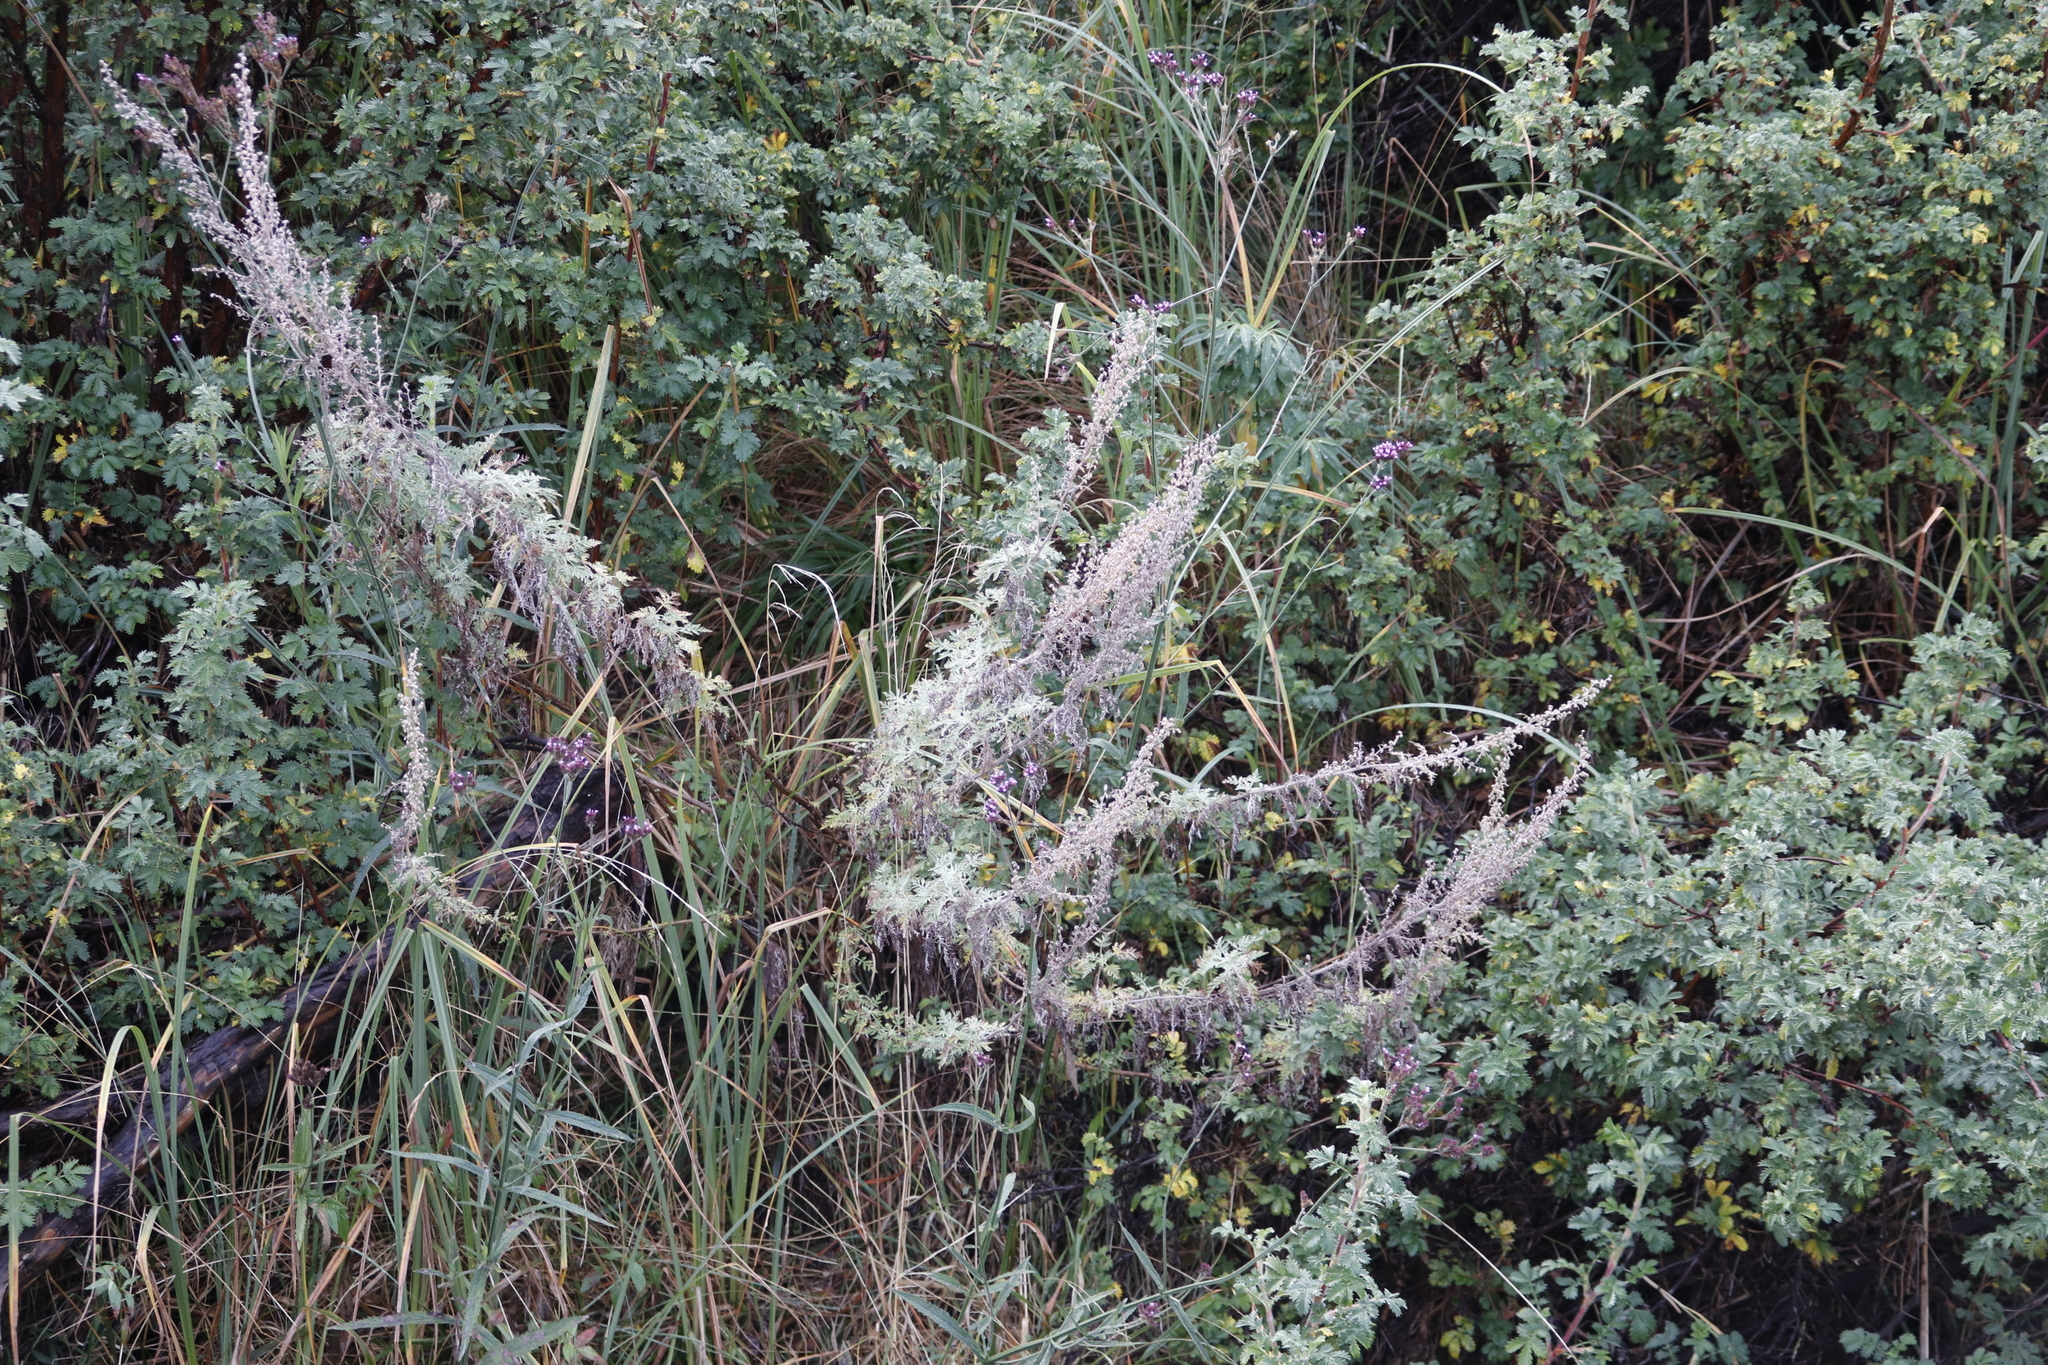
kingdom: Plantae
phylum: Tracheophyta
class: Magnoliopsida
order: Asterales
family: Asteraceae
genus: Artemisia
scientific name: Artemisia afra
